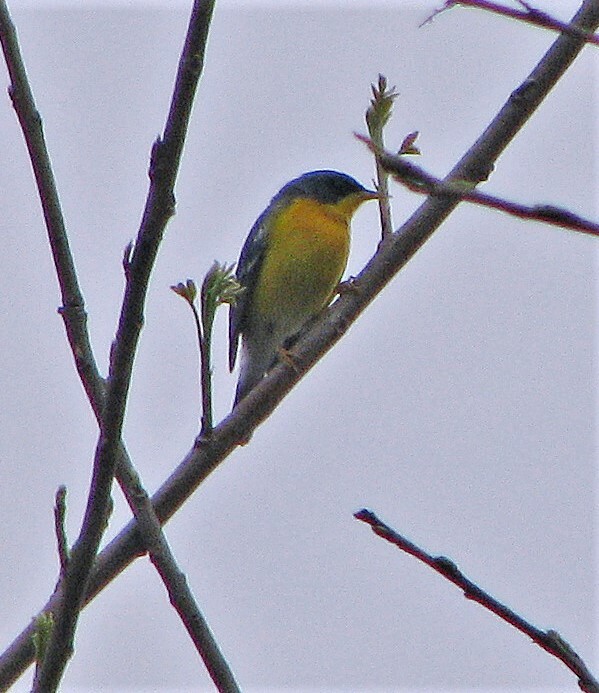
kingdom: Animalia
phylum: Chordata
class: Aves
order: Passeriformes
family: Parulidae
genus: Setophaga
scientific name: Setophaga pitiayumi
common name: Tropical parula
